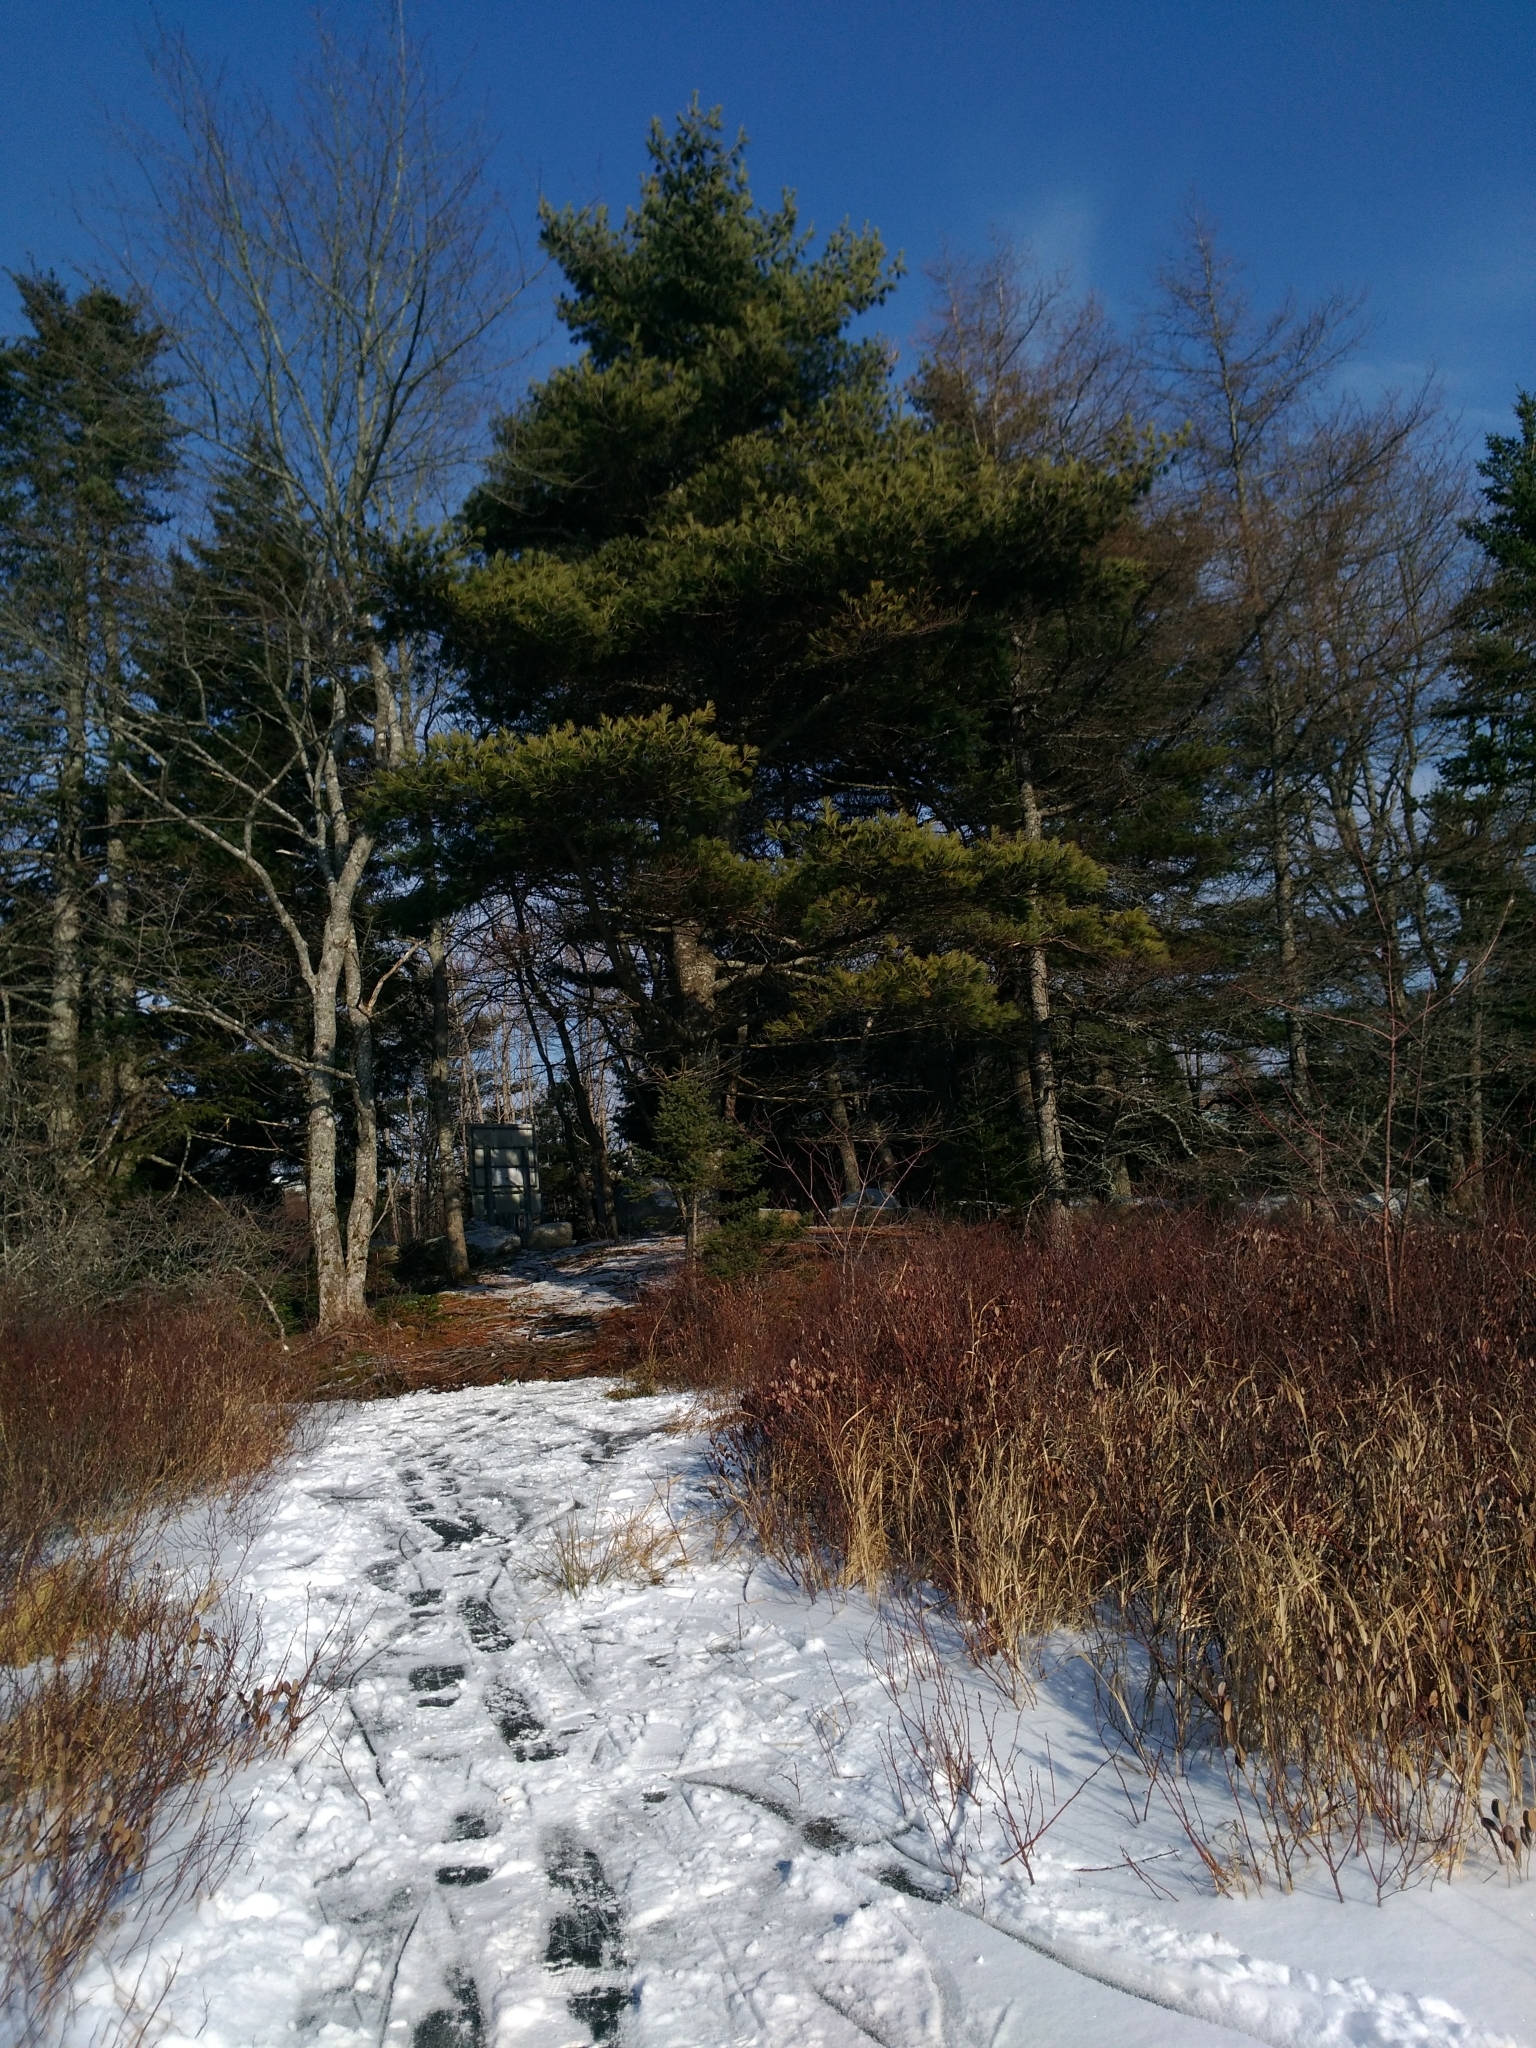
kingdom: Plantae
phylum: Tracheophyta
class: Pinopsida
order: Pinales
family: Pinaceae
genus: Pinus
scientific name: Pinus strobus
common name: Weymouth pine
